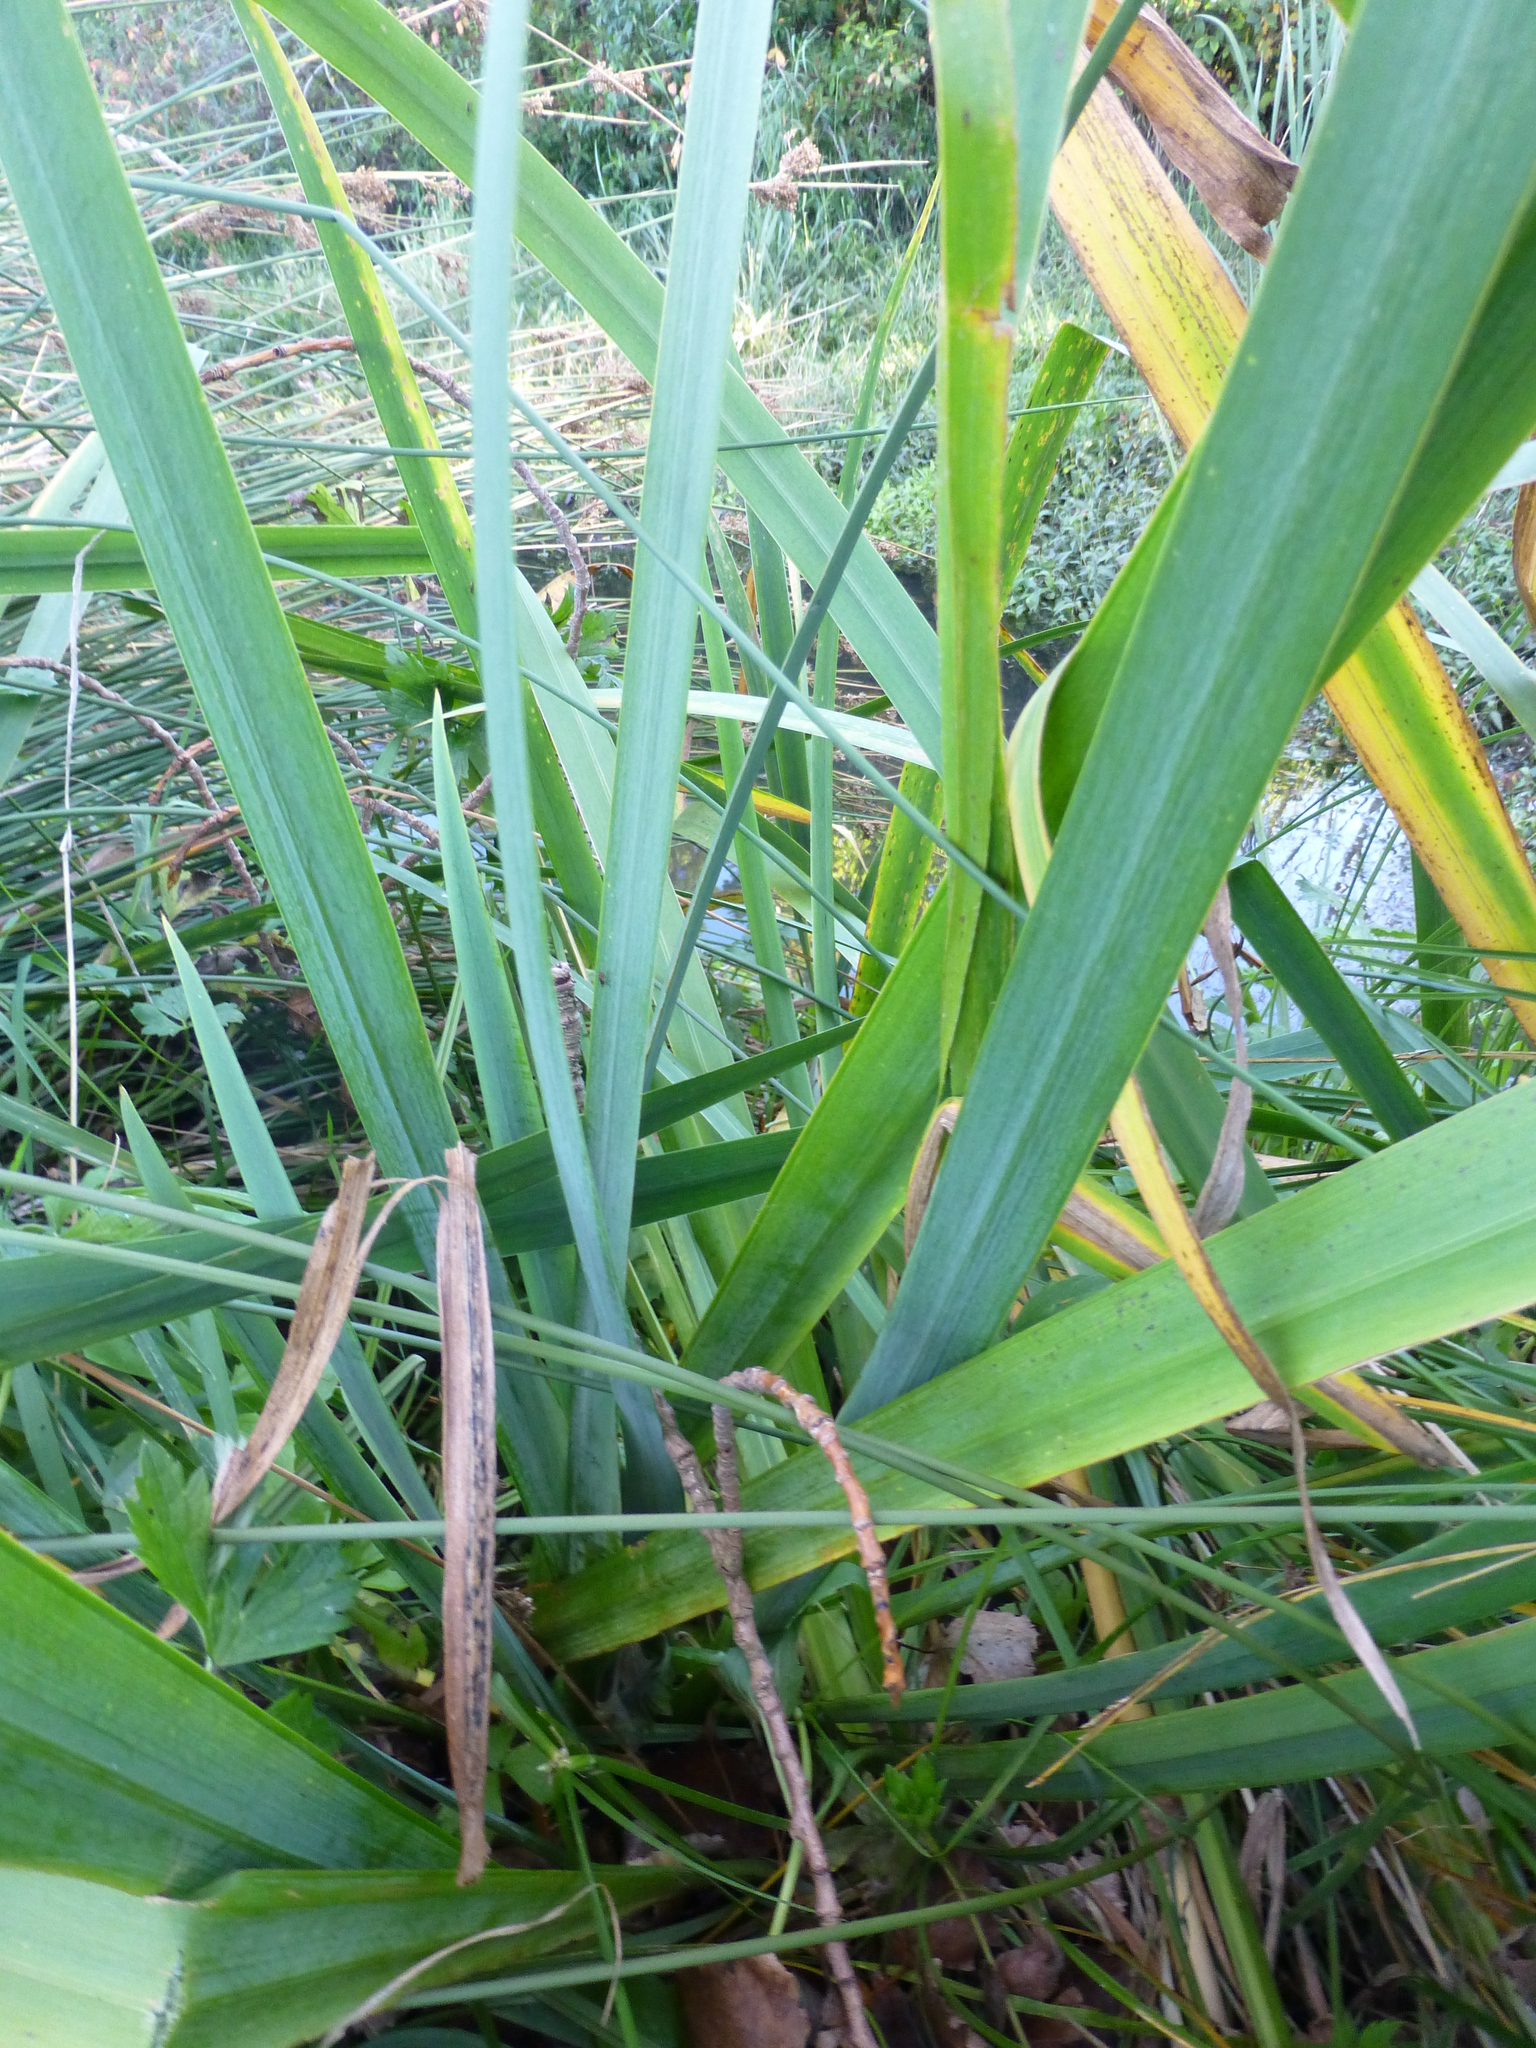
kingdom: Plantae
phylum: Tracheophyta
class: Liliopsida
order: Asparagales
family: Iridaceae
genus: Iris
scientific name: Iris pseudacorus
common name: Yellow flag
